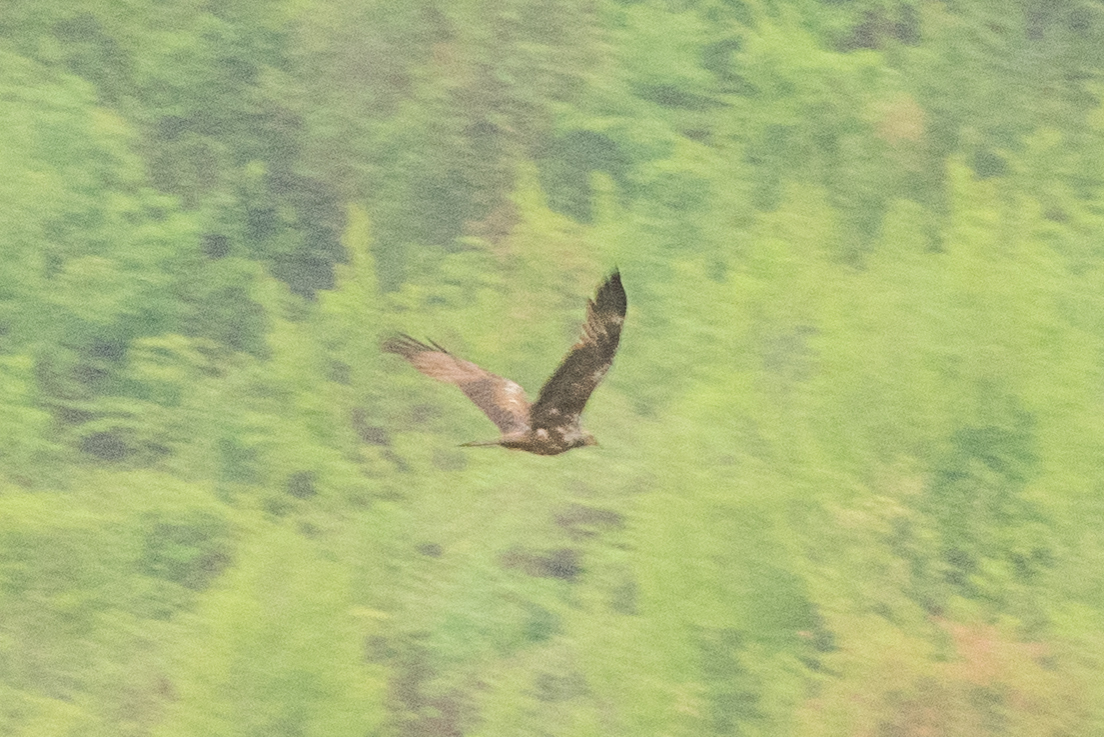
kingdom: Animalia
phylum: Chordata
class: Aves
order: Accipitriformes
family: Accipitridae
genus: Circus
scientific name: Circus aeruginosus
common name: Western marsh harrier
